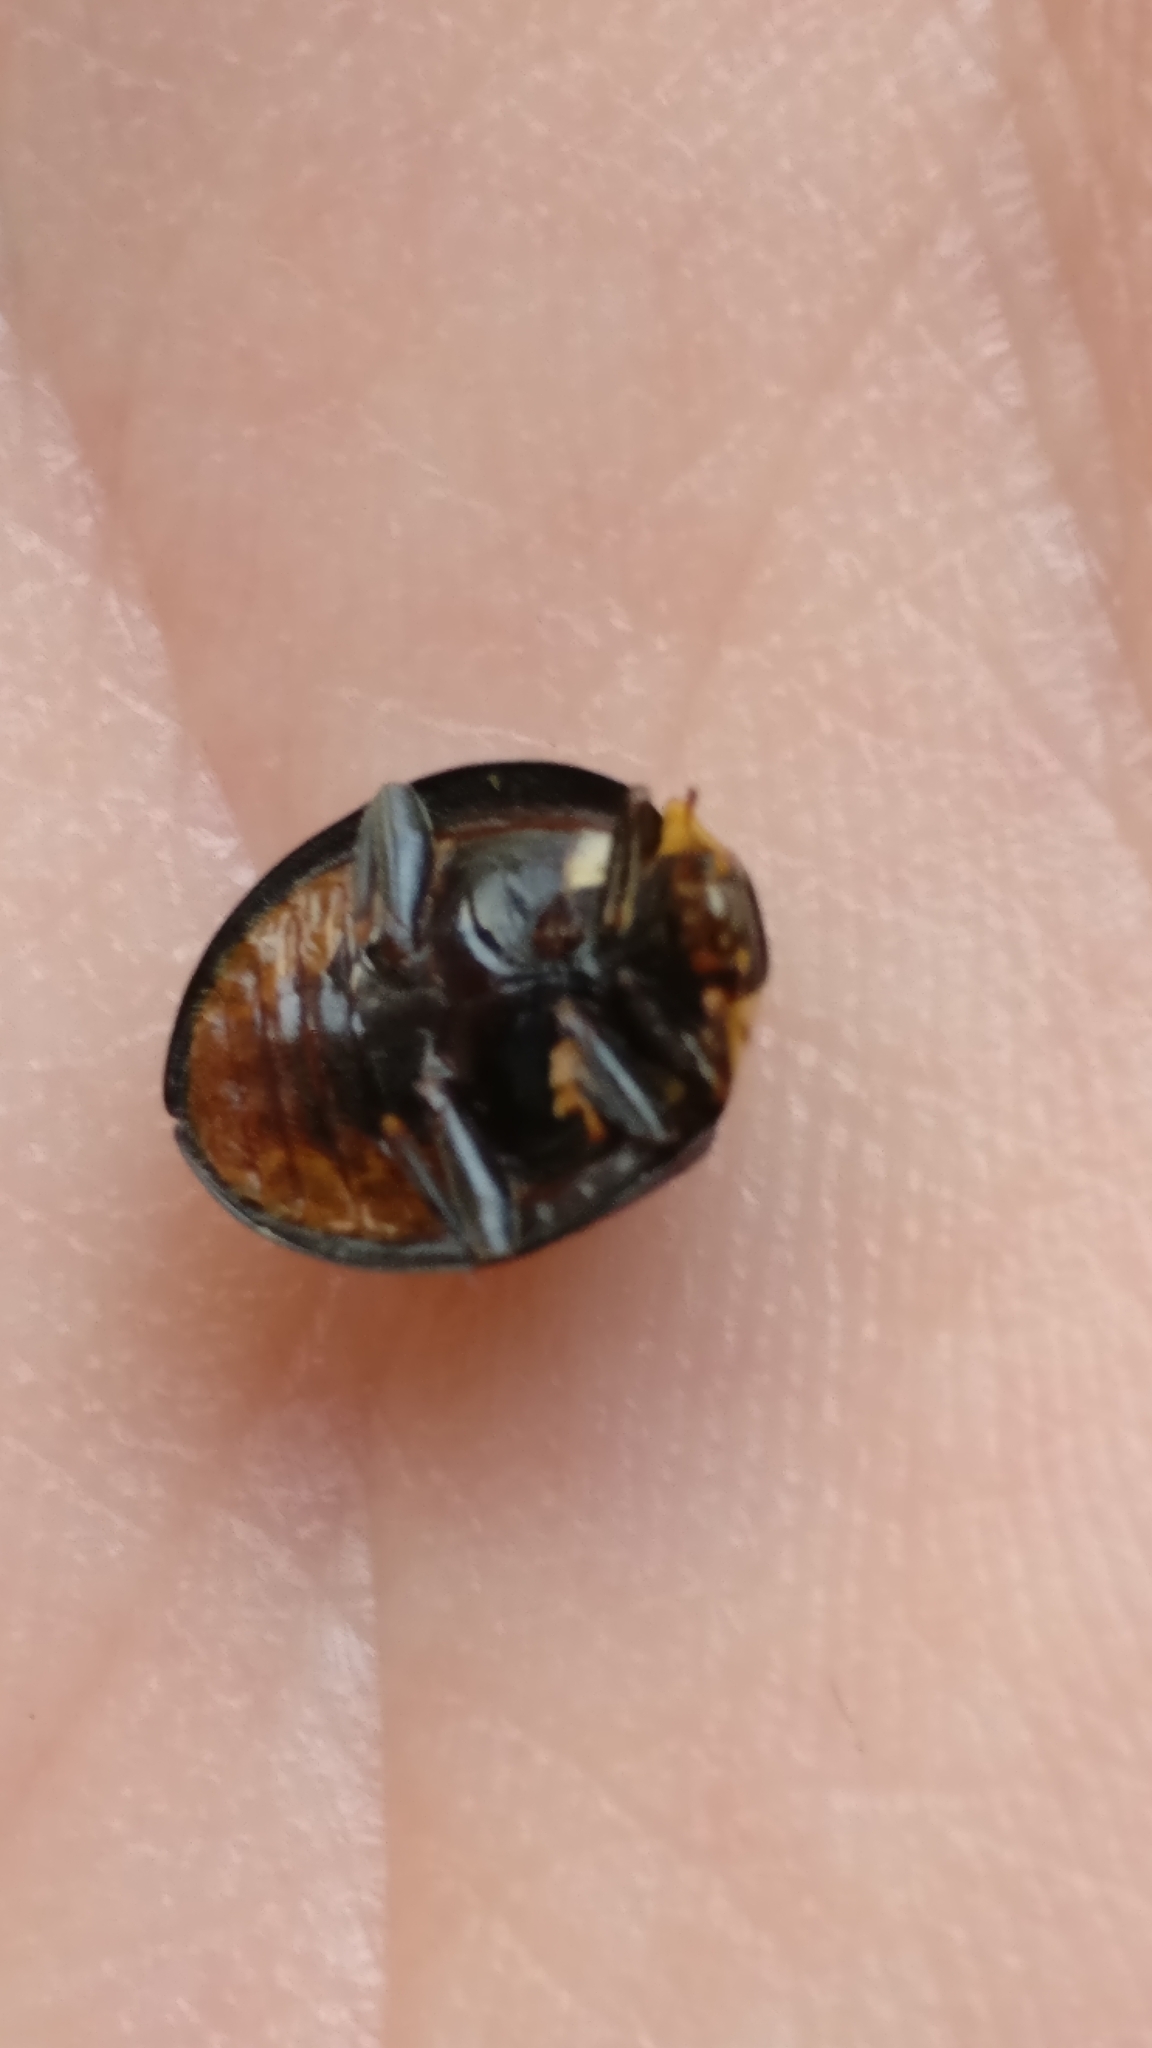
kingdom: Animalia
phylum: Arthropoda
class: Insecta
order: Coleoptera
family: Coccinellidae
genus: Harmonia
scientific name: Harmonia axyridis
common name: Harlequin ladybird
